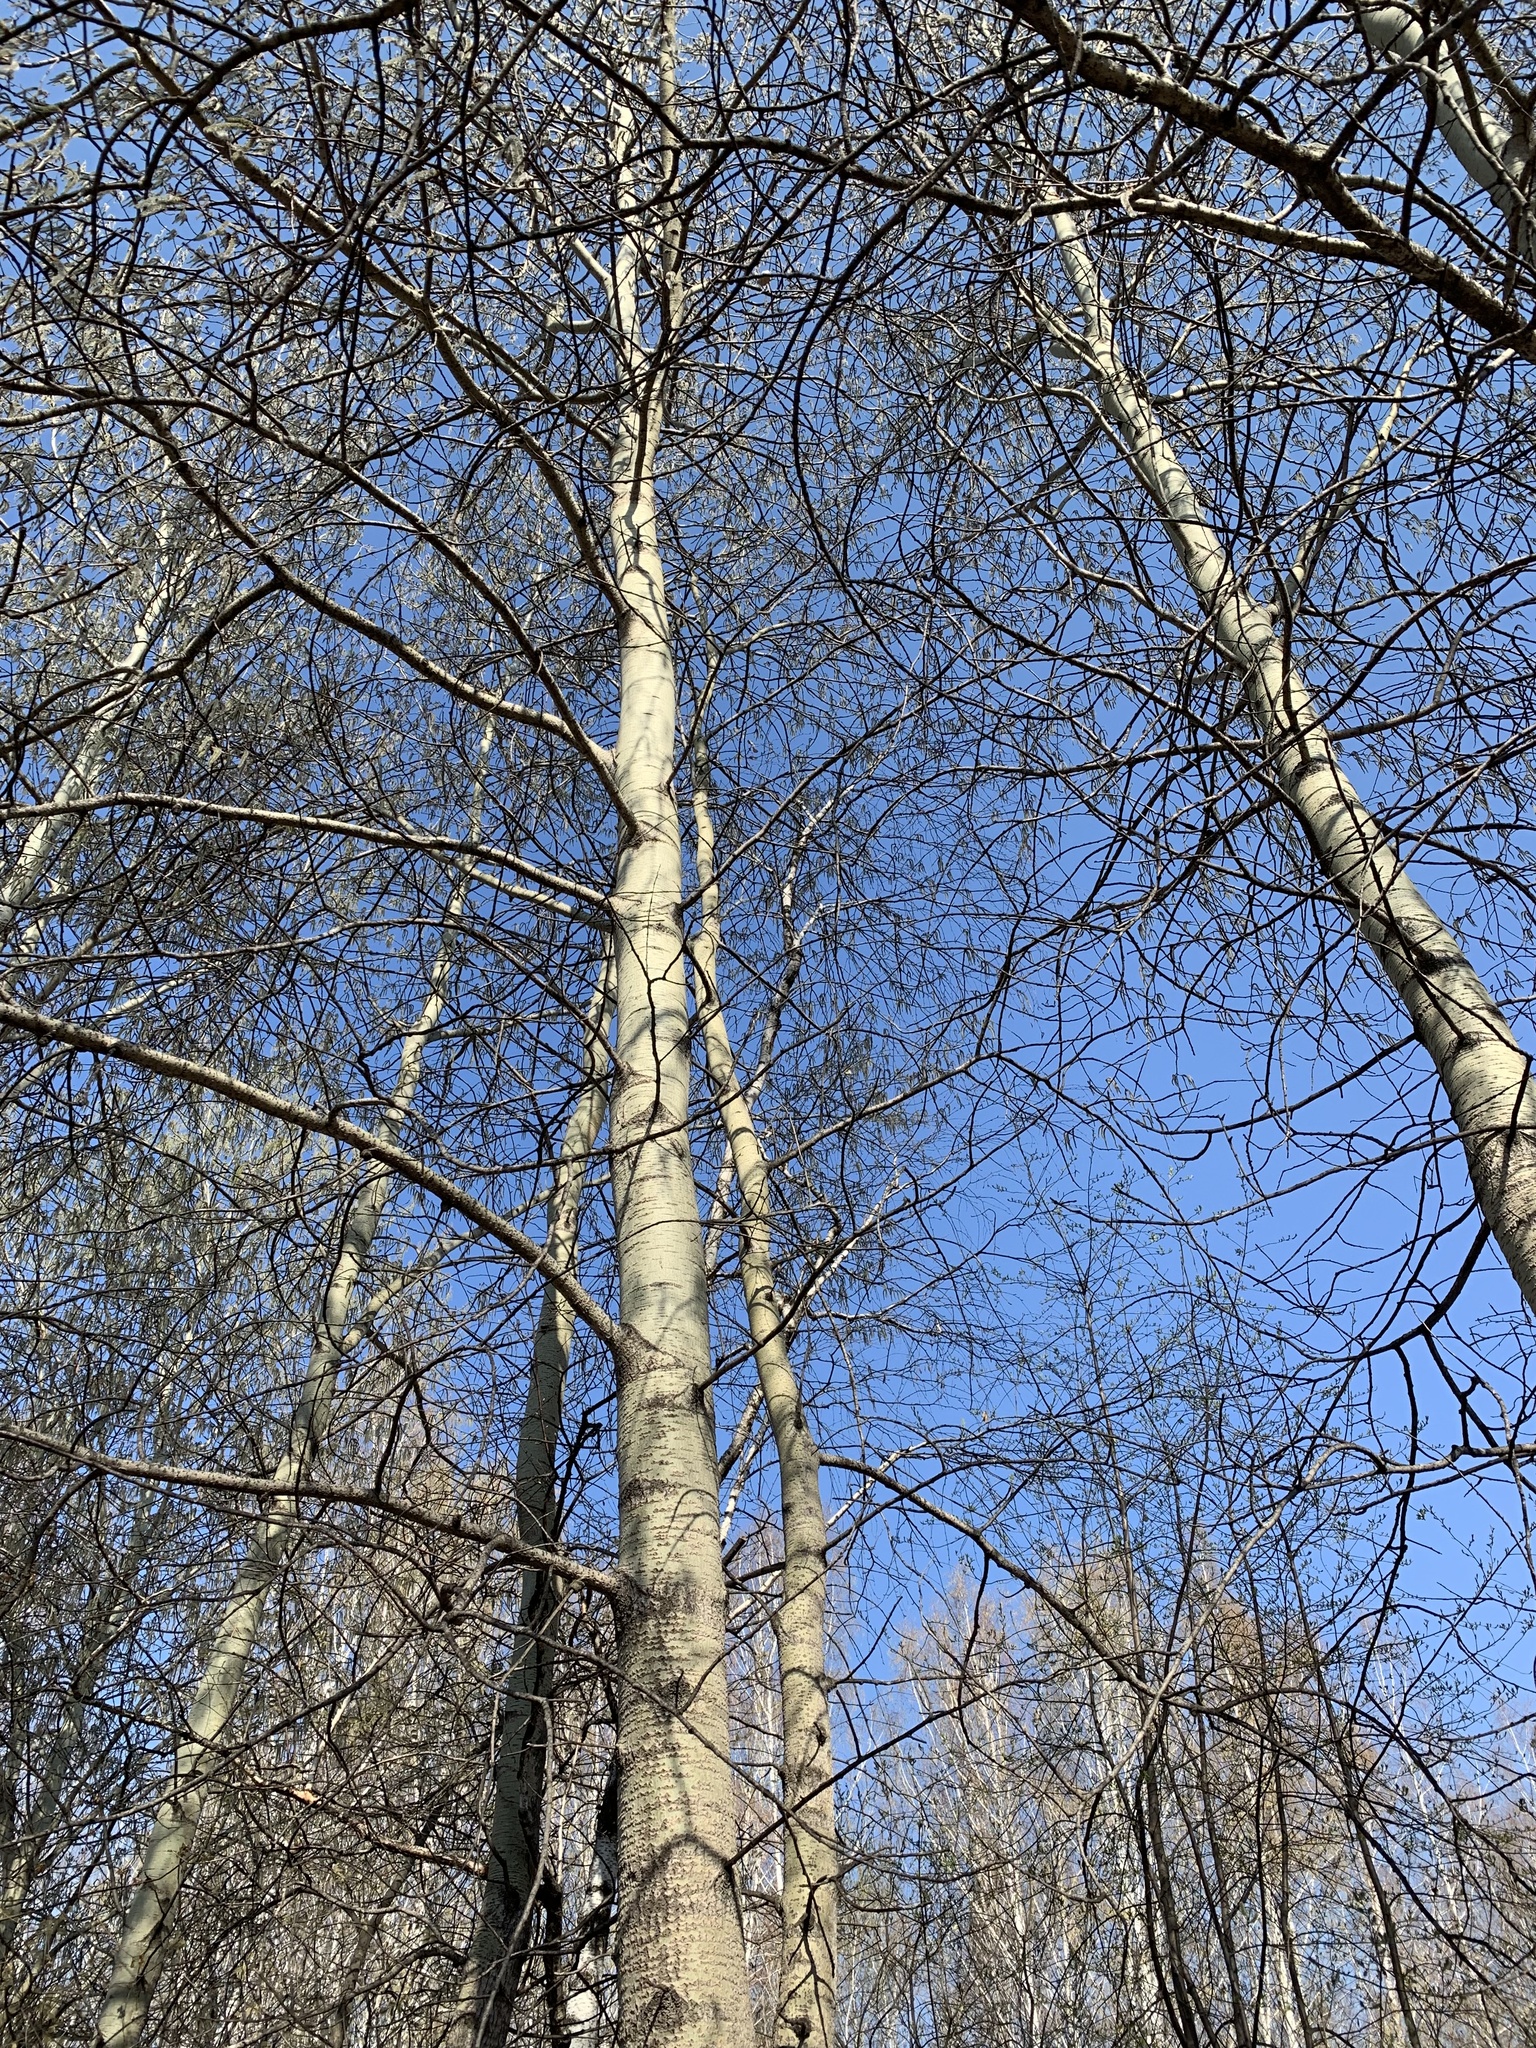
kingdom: Plantae
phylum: Tracheophyta
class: Magnoliopsida
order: Malpighiales
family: Salicaceae
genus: Populus
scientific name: Populus tremula
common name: European aspen
